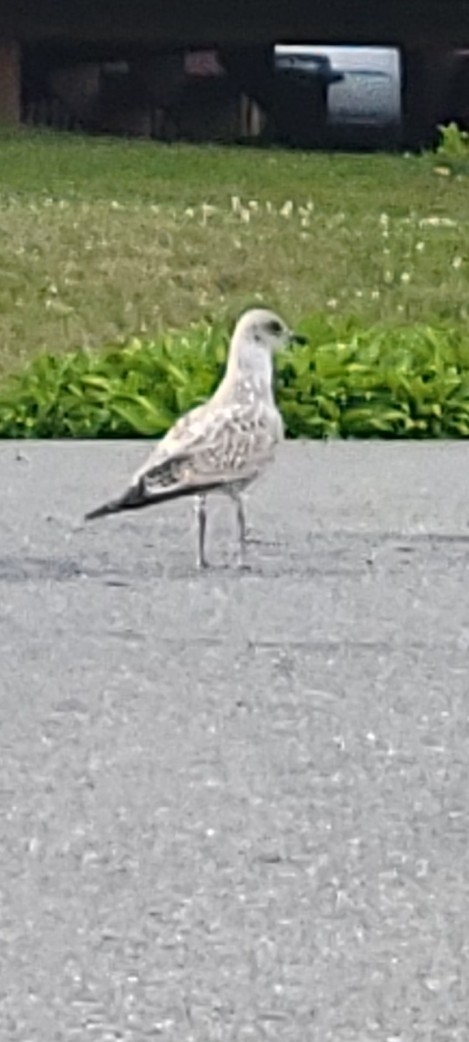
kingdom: Animalia
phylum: Chordata
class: Aves
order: Charadriiformes
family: Laridae
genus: Larus
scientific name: Larus delawarensis
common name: Ring-billed gull
